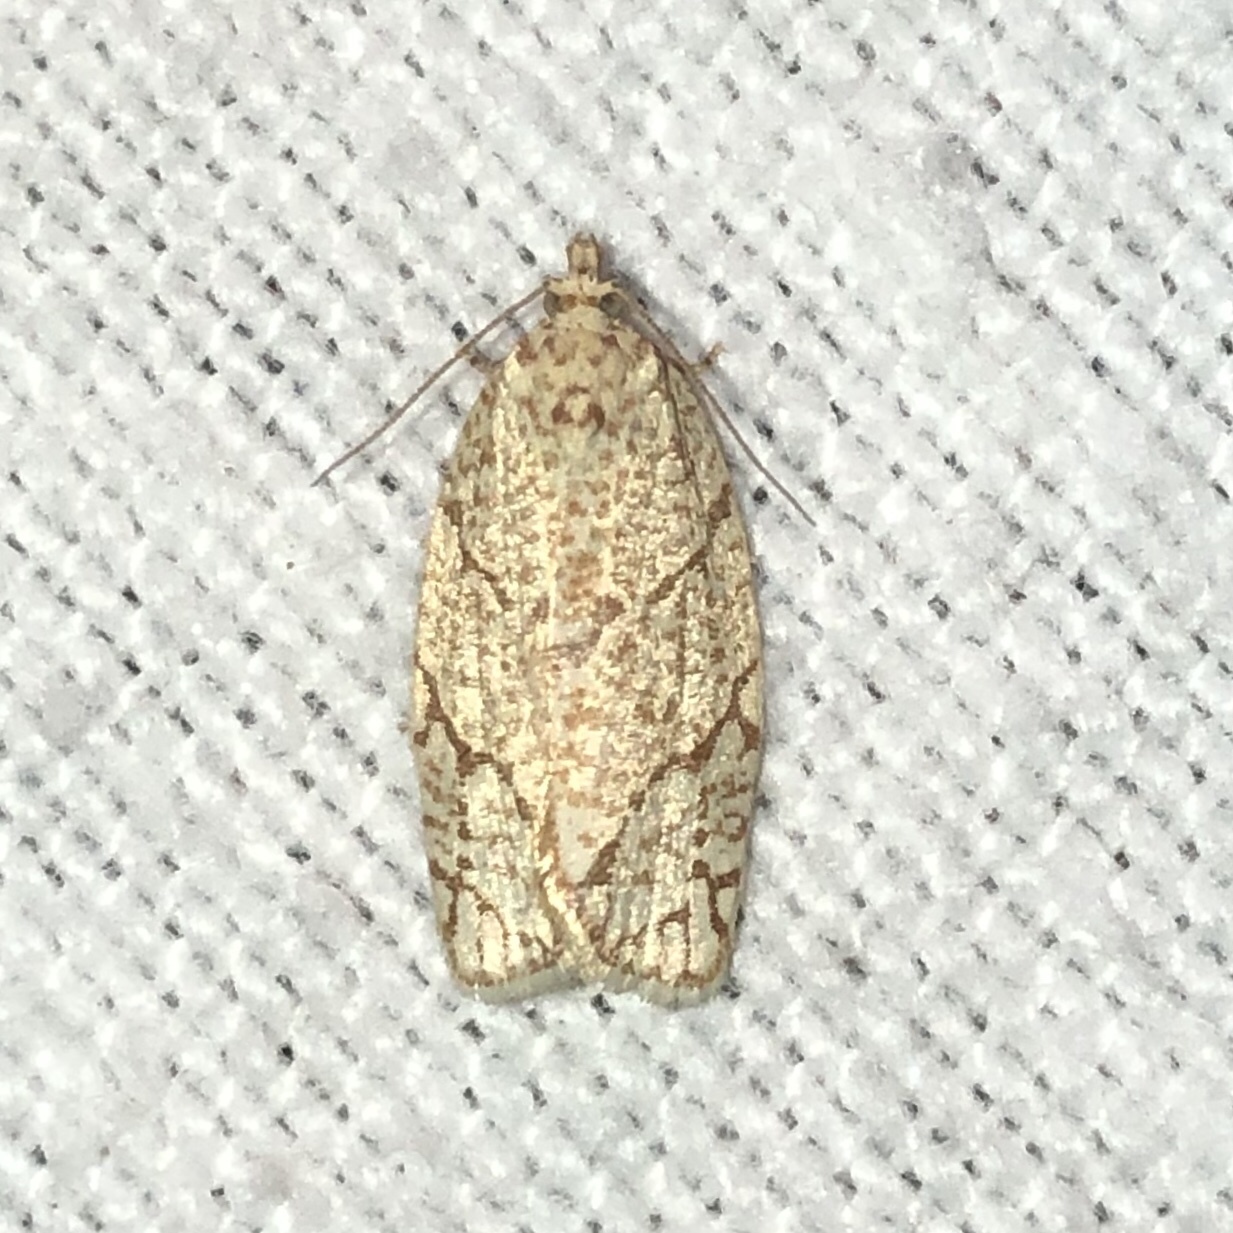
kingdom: Animalia
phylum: Arthropoda
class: Insecta
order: Lepidoptera
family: Tortricidae
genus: Argyrotaenia
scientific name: Argyrotaenia quercifoliana
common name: Yellow-winged oak leafroller moth
